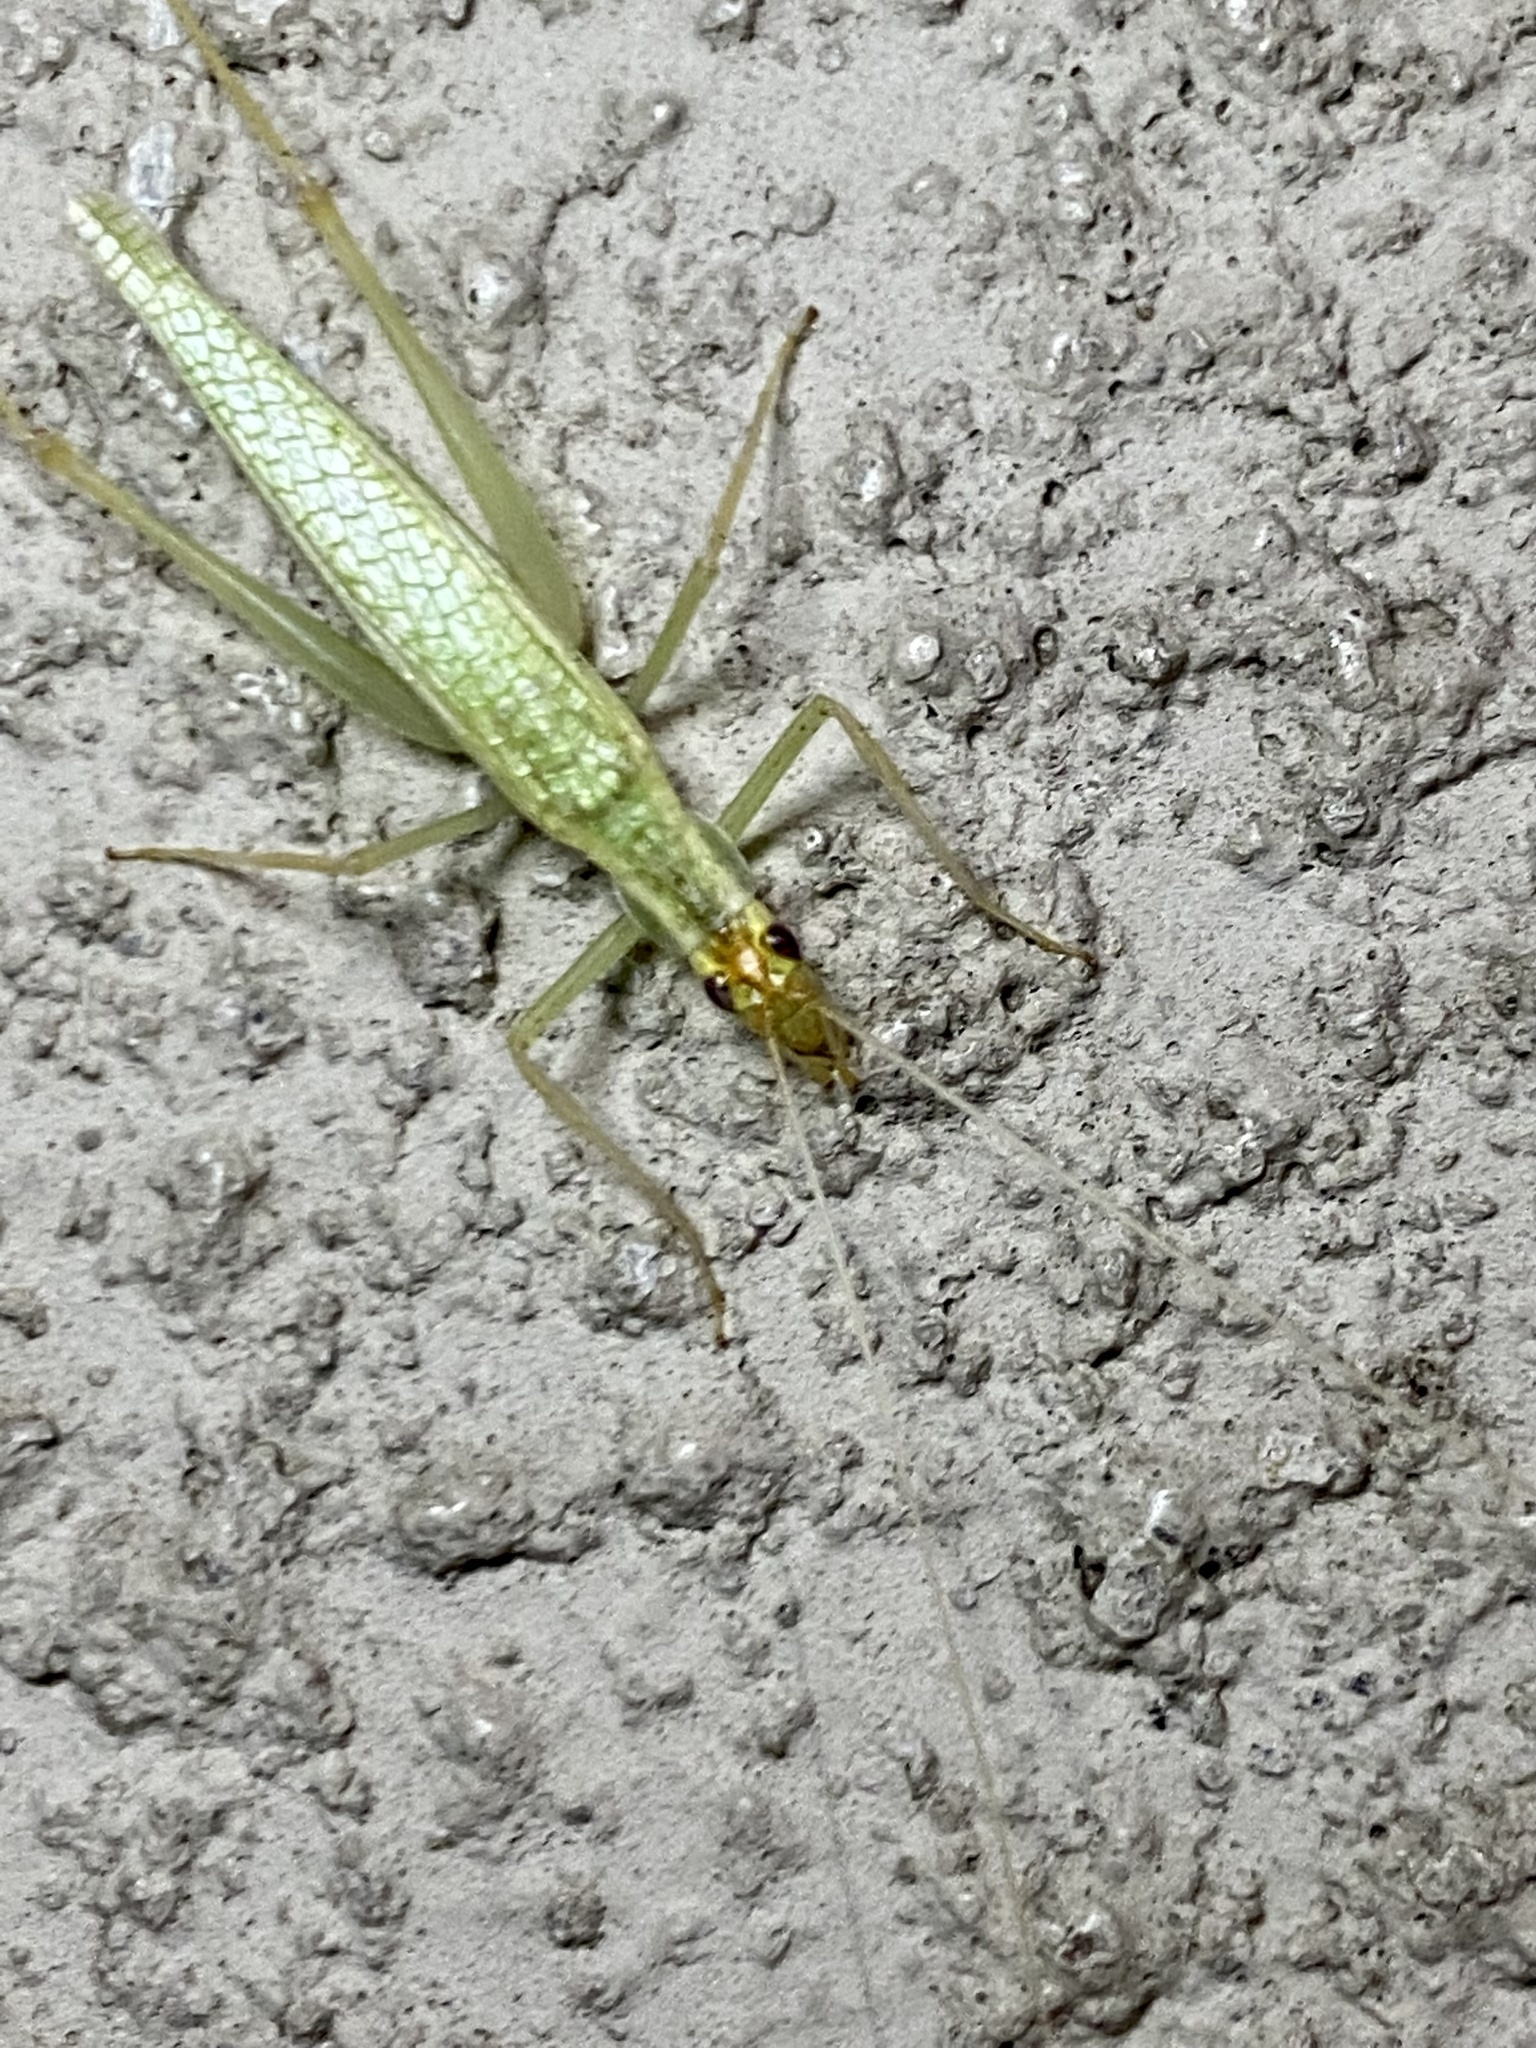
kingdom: Animalia
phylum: Arthropoda
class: Insecta
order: Orthoptera
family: Gryllidae
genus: Oecanthus
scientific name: Oecanthus niveus
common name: Narrow-winged tree cricket
